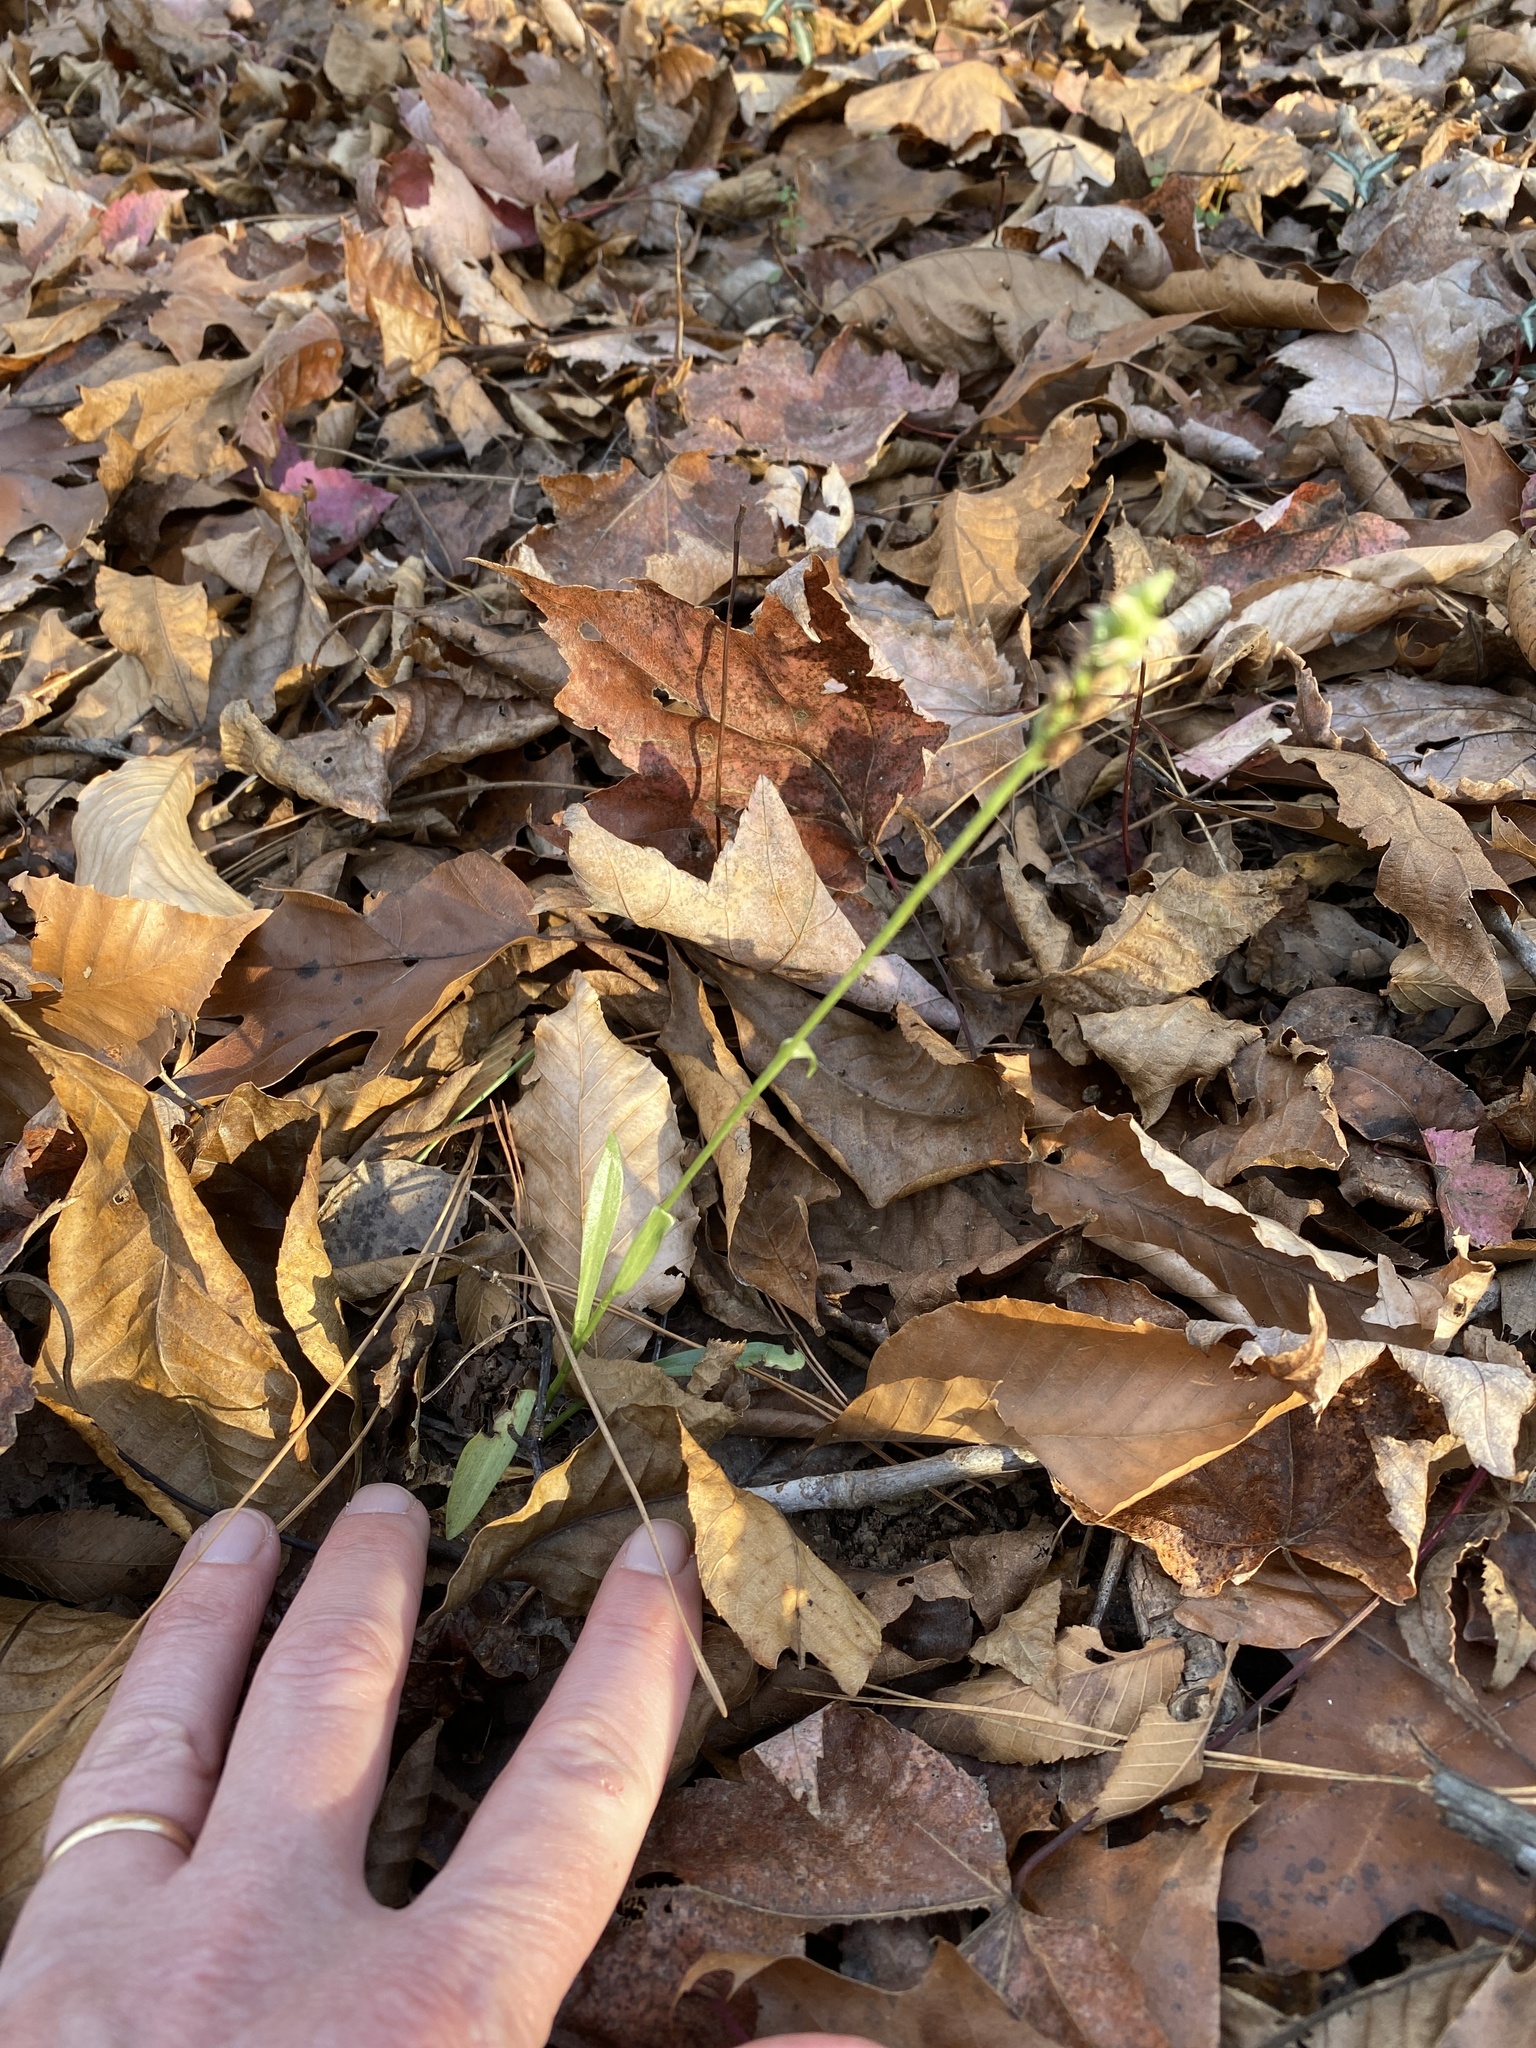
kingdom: Plantae
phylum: Tracheophyta
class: Liliopsida
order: Asparagales
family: Orchidaceae
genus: Spiranthes
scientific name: Spiranthes ovalis
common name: October ladies'-tresses
